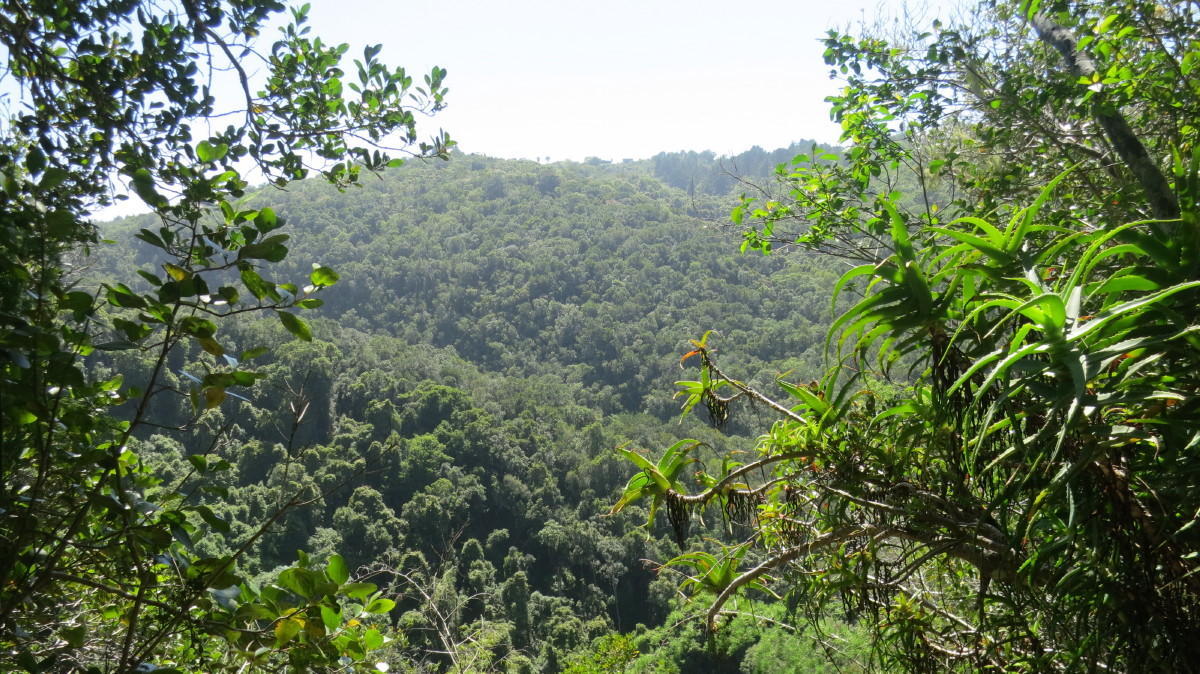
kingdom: Plantae
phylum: Tracheophyta
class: Liliopsida
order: Asparagales
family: Asphodelaceae
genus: Aloe
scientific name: Aloe arborescens
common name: Candelabra aloe
